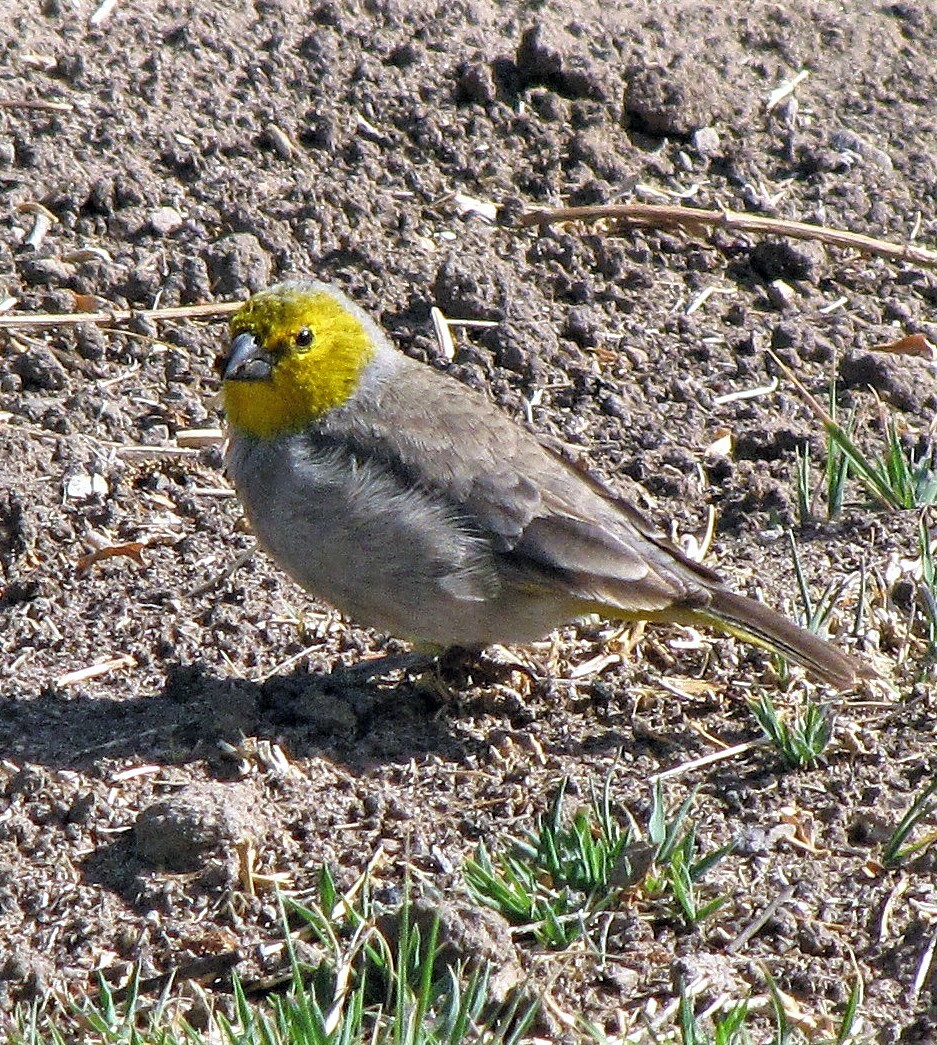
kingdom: Animalia
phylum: Chordata
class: Aves
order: Passeriformes
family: Thraupidae
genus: Sicalis
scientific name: Sicalis luteocephala
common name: Citron-headed yellow finch
